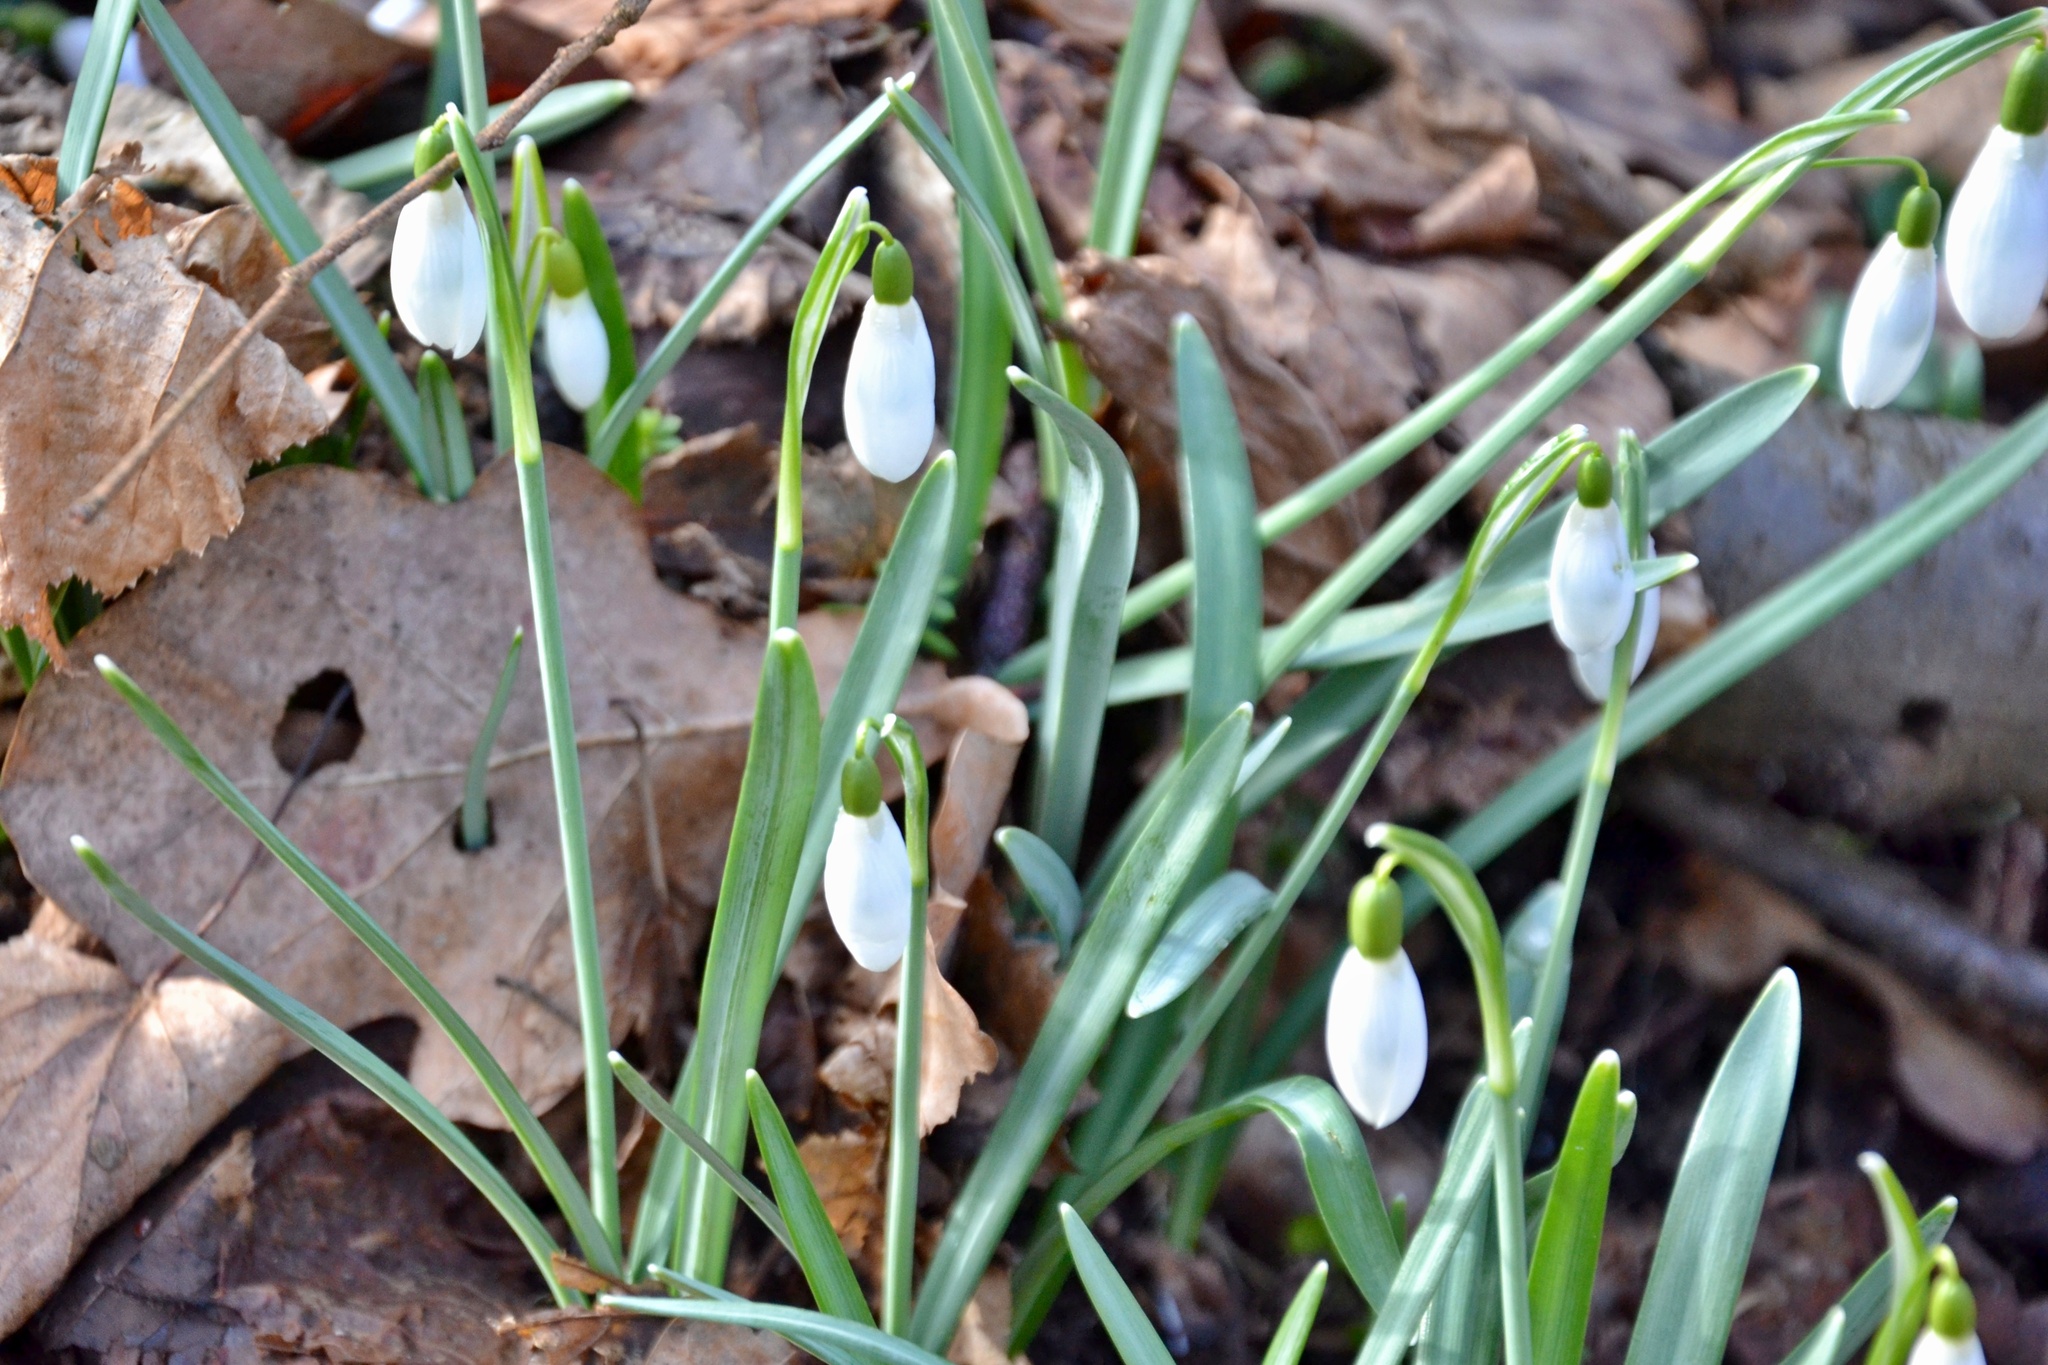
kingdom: Plantae
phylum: Tracheophyta
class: Liliopsida
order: Asparagales
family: Amaryllidaceae
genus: Galanthus
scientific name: Galanthus nivalis
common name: Snowdrop
